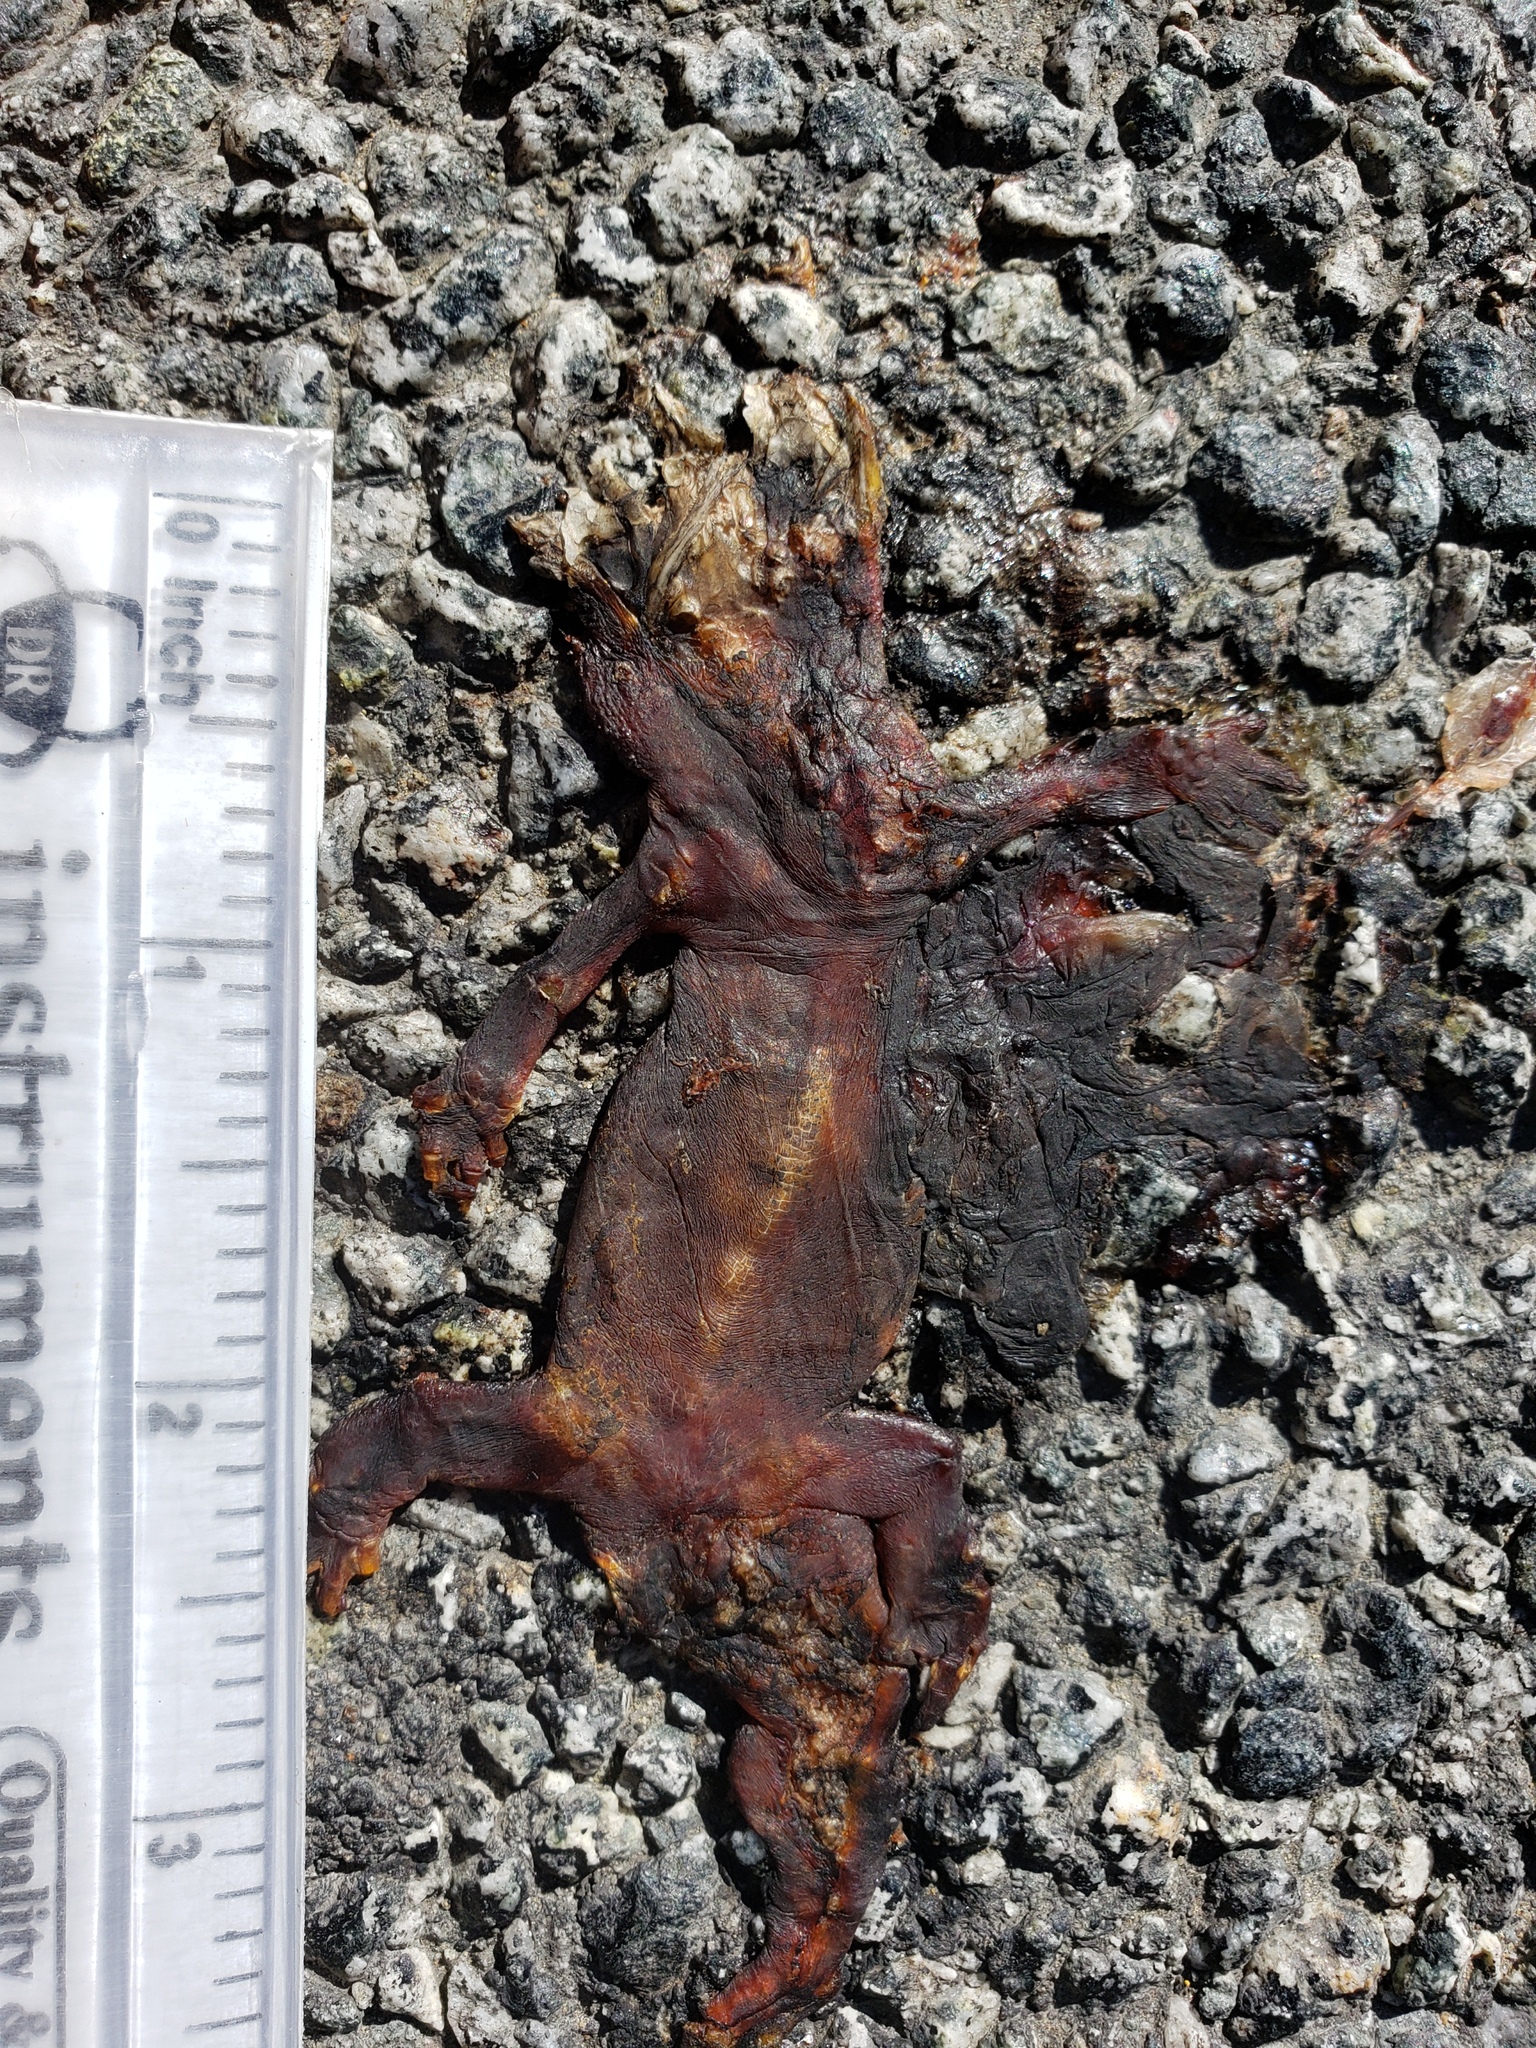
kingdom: Animalia
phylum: Chordata
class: Amphibia
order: Caudata
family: Salamandridae
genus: Taricha
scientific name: Taricha
